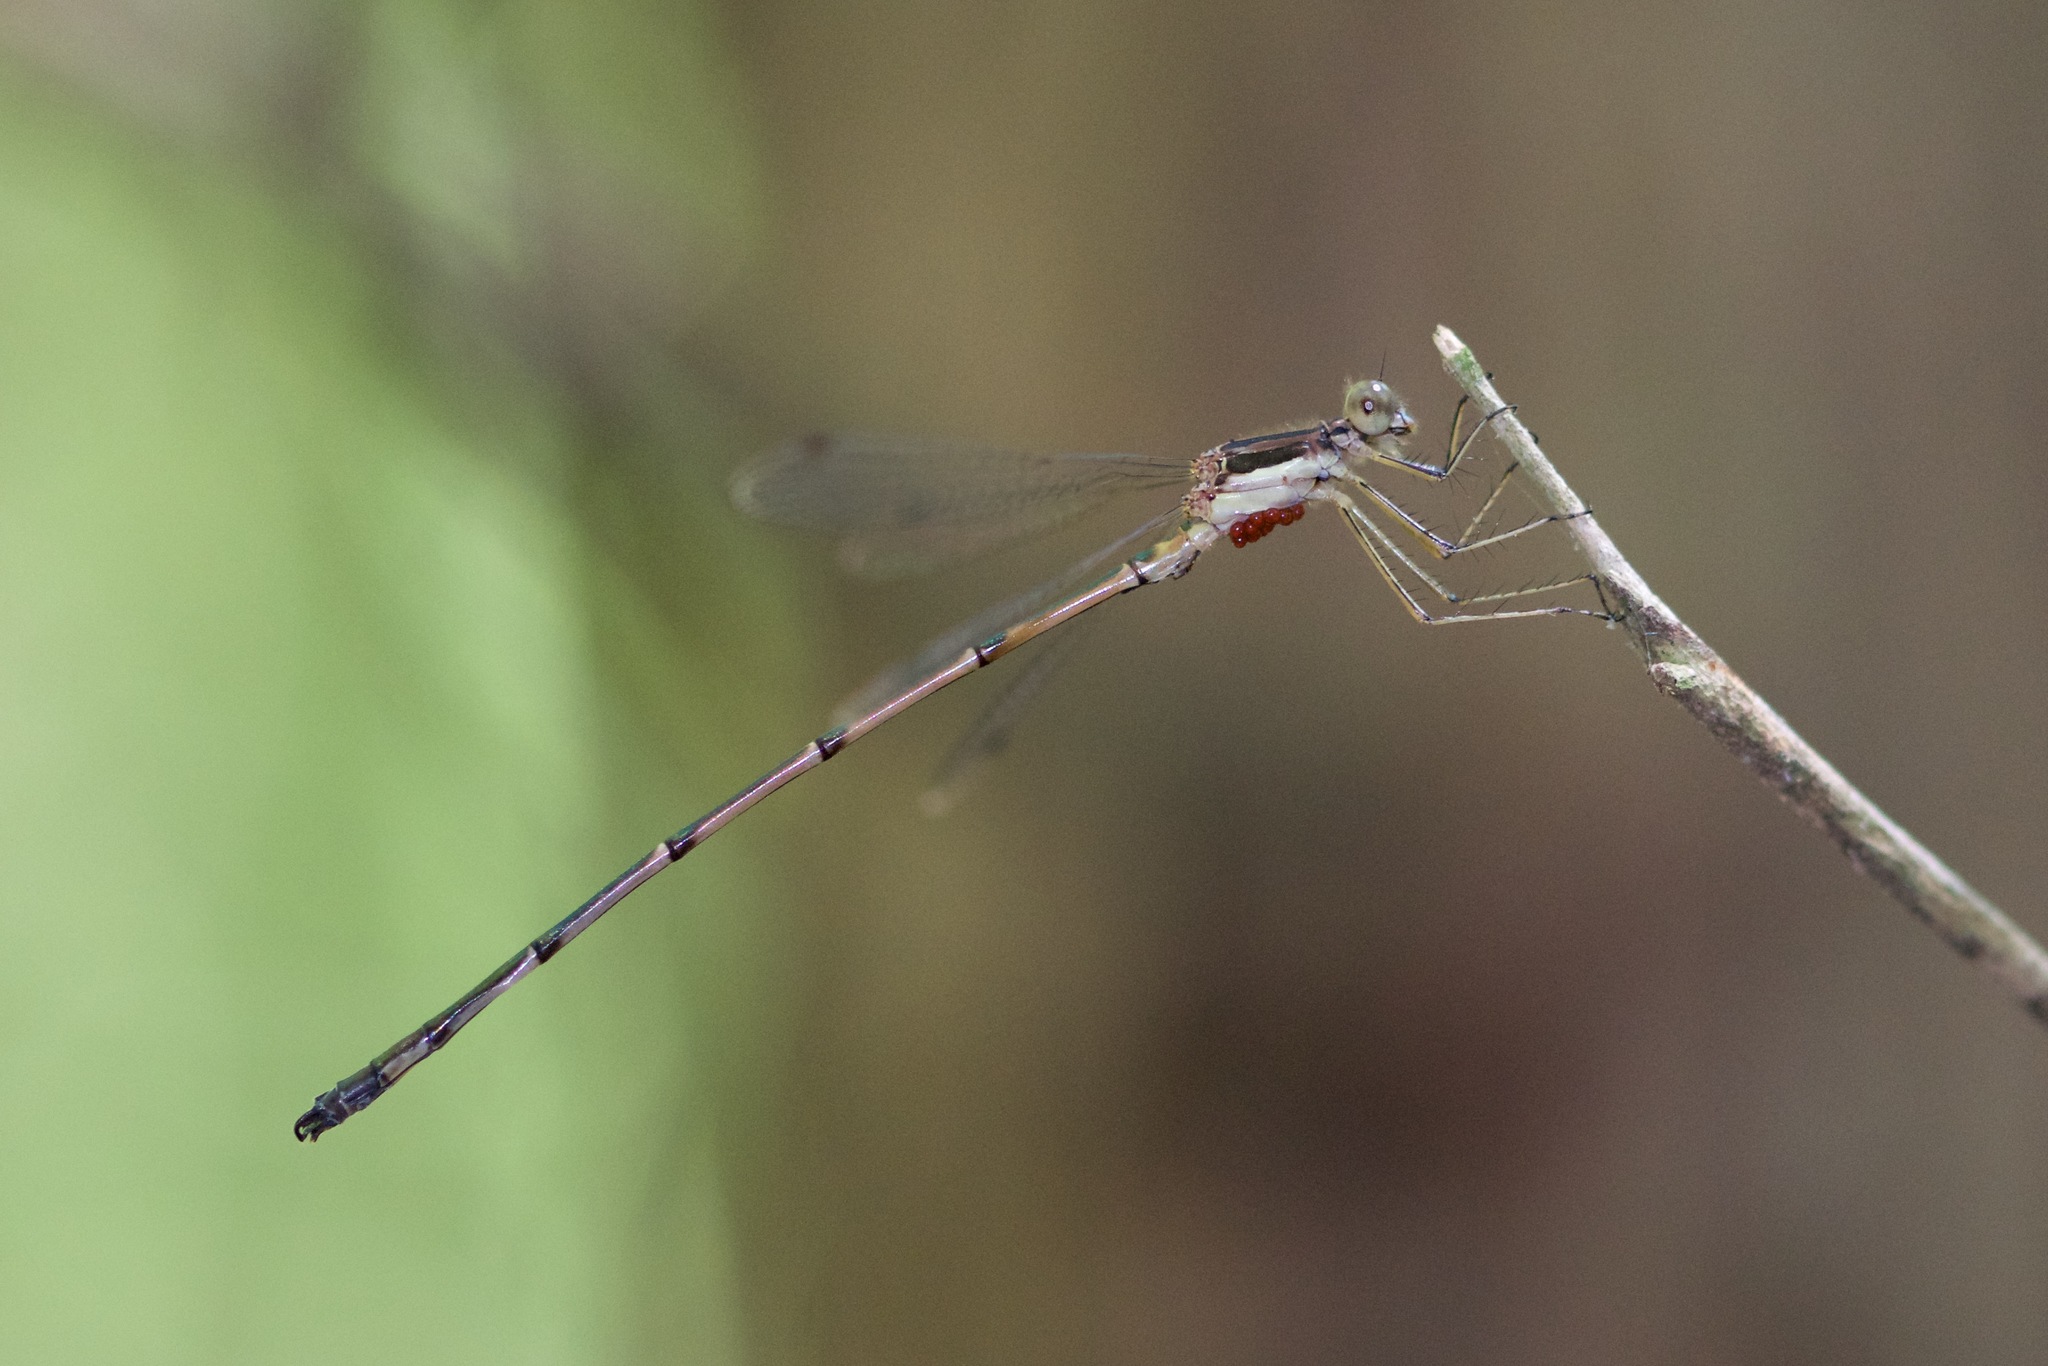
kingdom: Animalia
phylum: Arthropoda
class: Insecta
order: Odonata
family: Lestidae
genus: Lestes
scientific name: Lestes rectangularis
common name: Slender spreadwing
